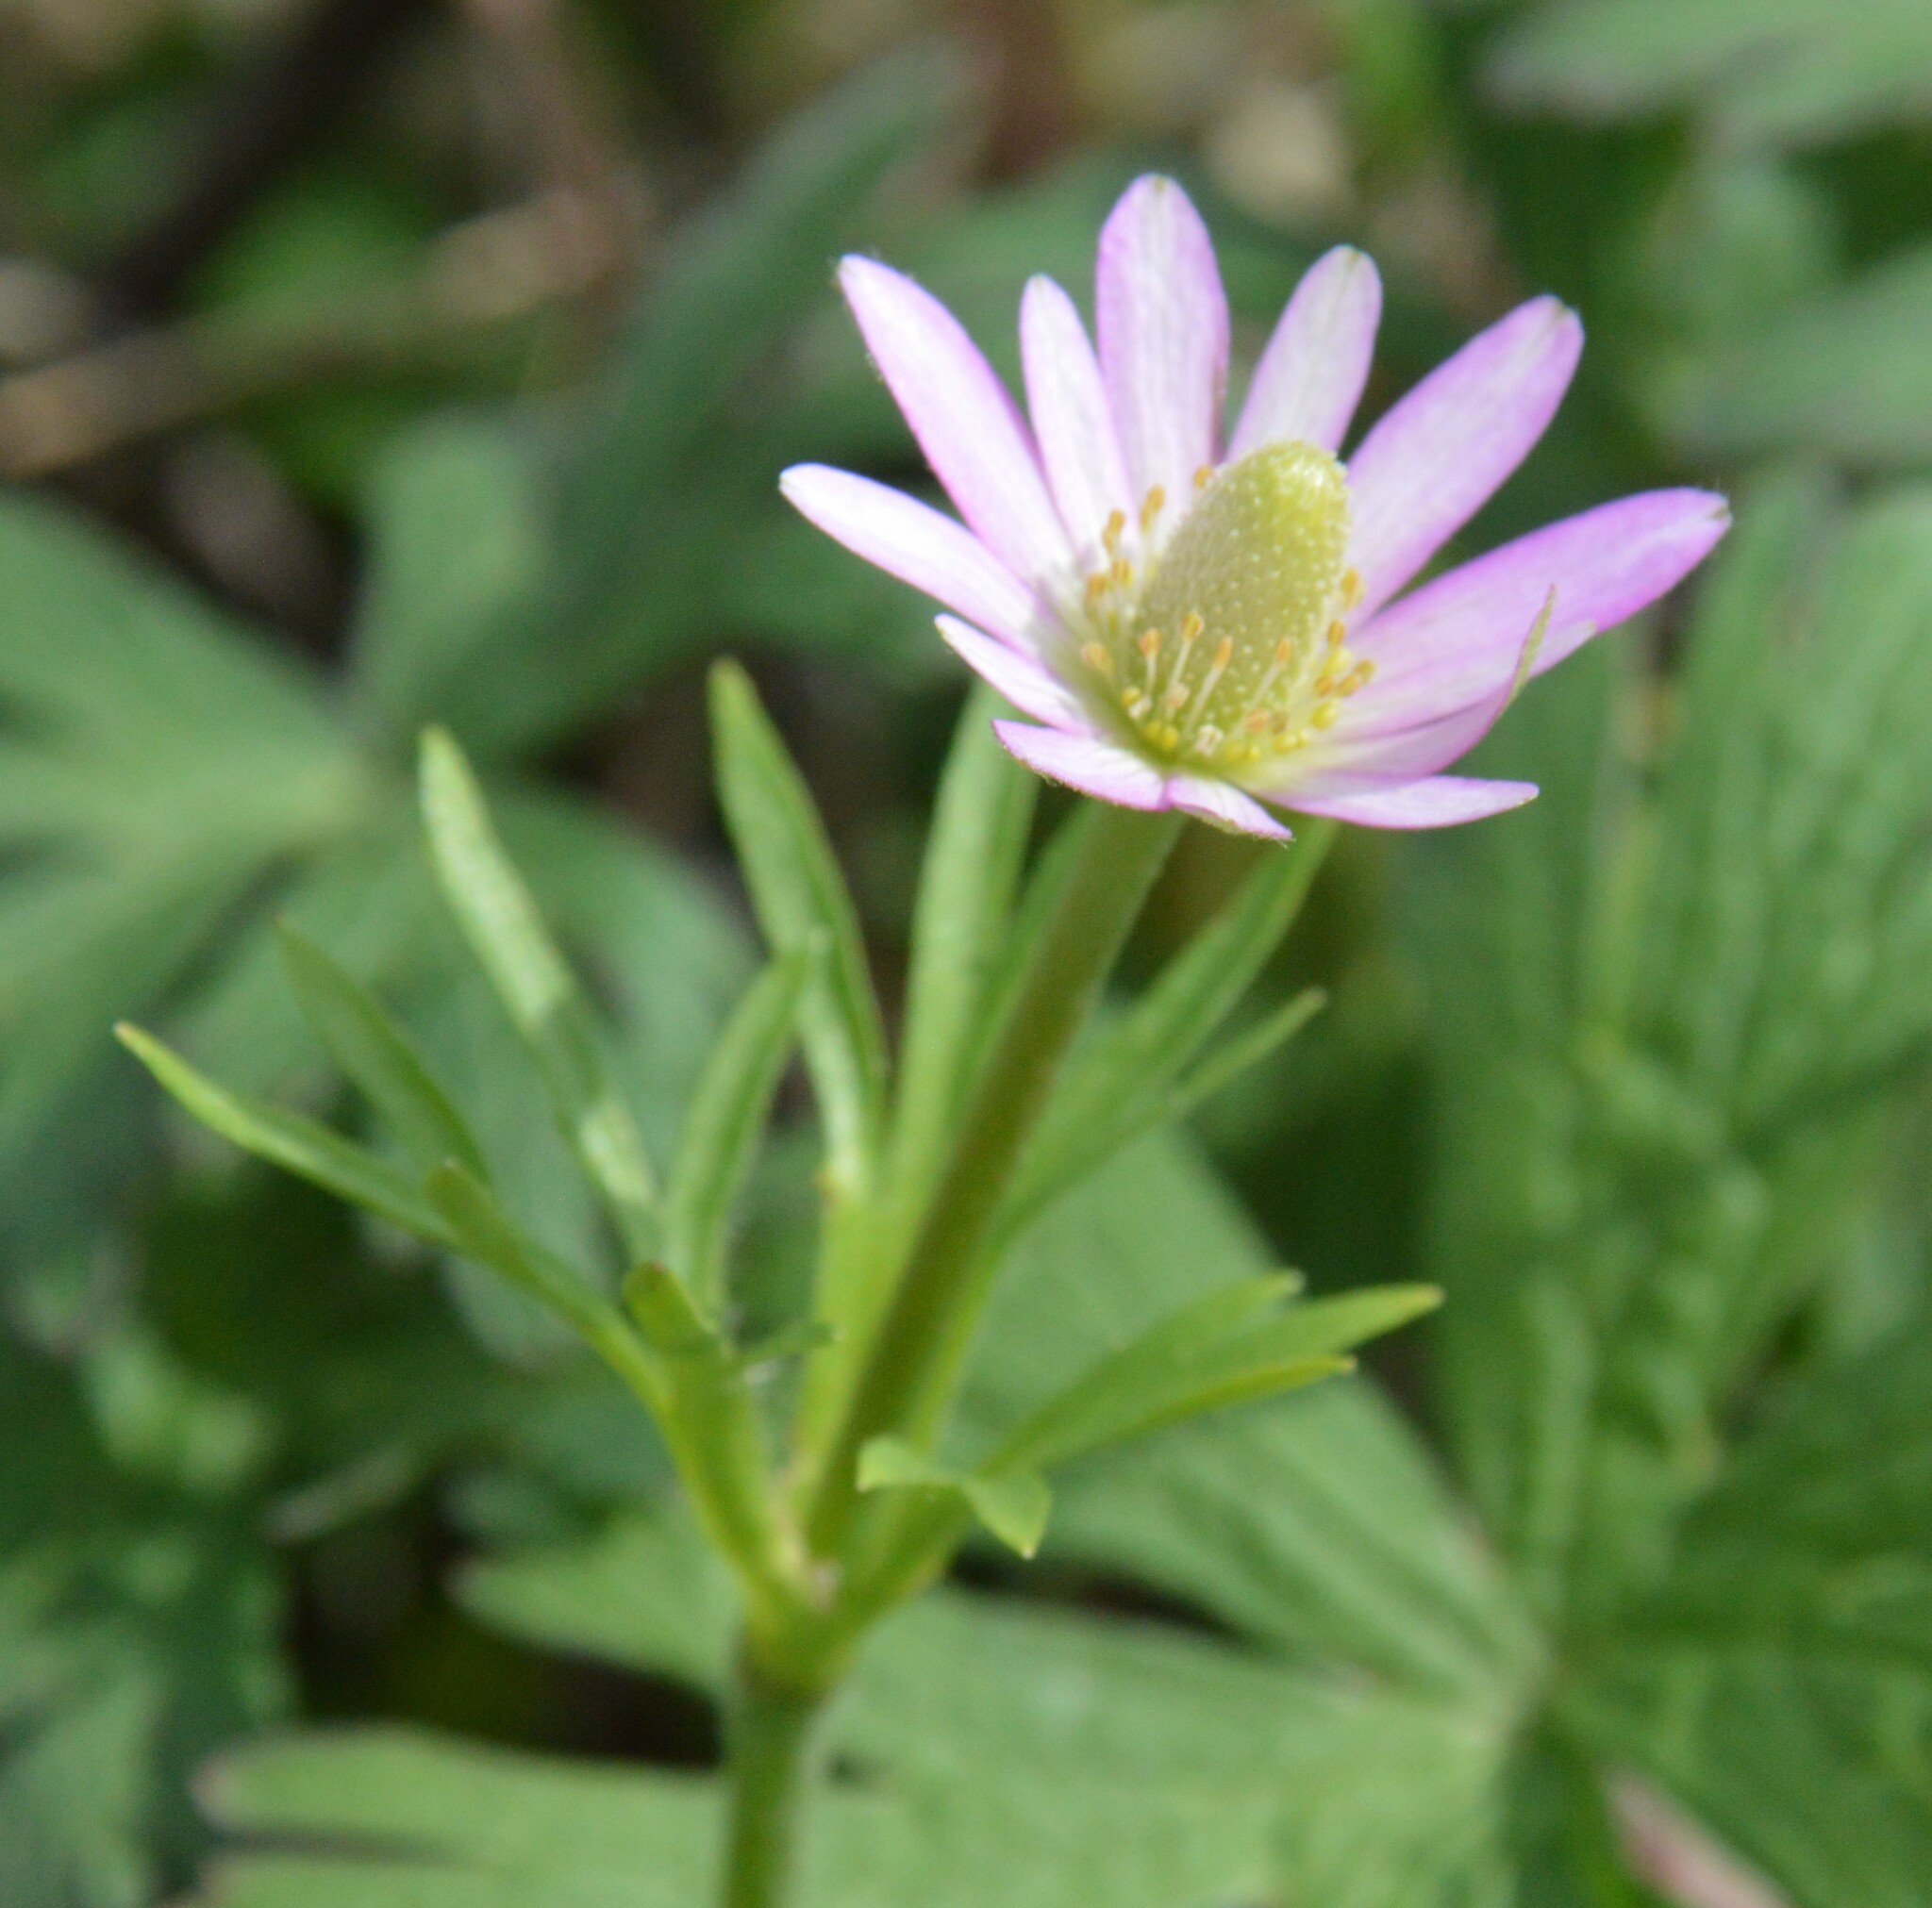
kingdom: Plantae
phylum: Tracheophyta
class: Magnoliopsida
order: Ranunculales
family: Ranunculaceae
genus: Anemone
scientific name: Anemone berlandieri
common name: Ten-petal anemone
